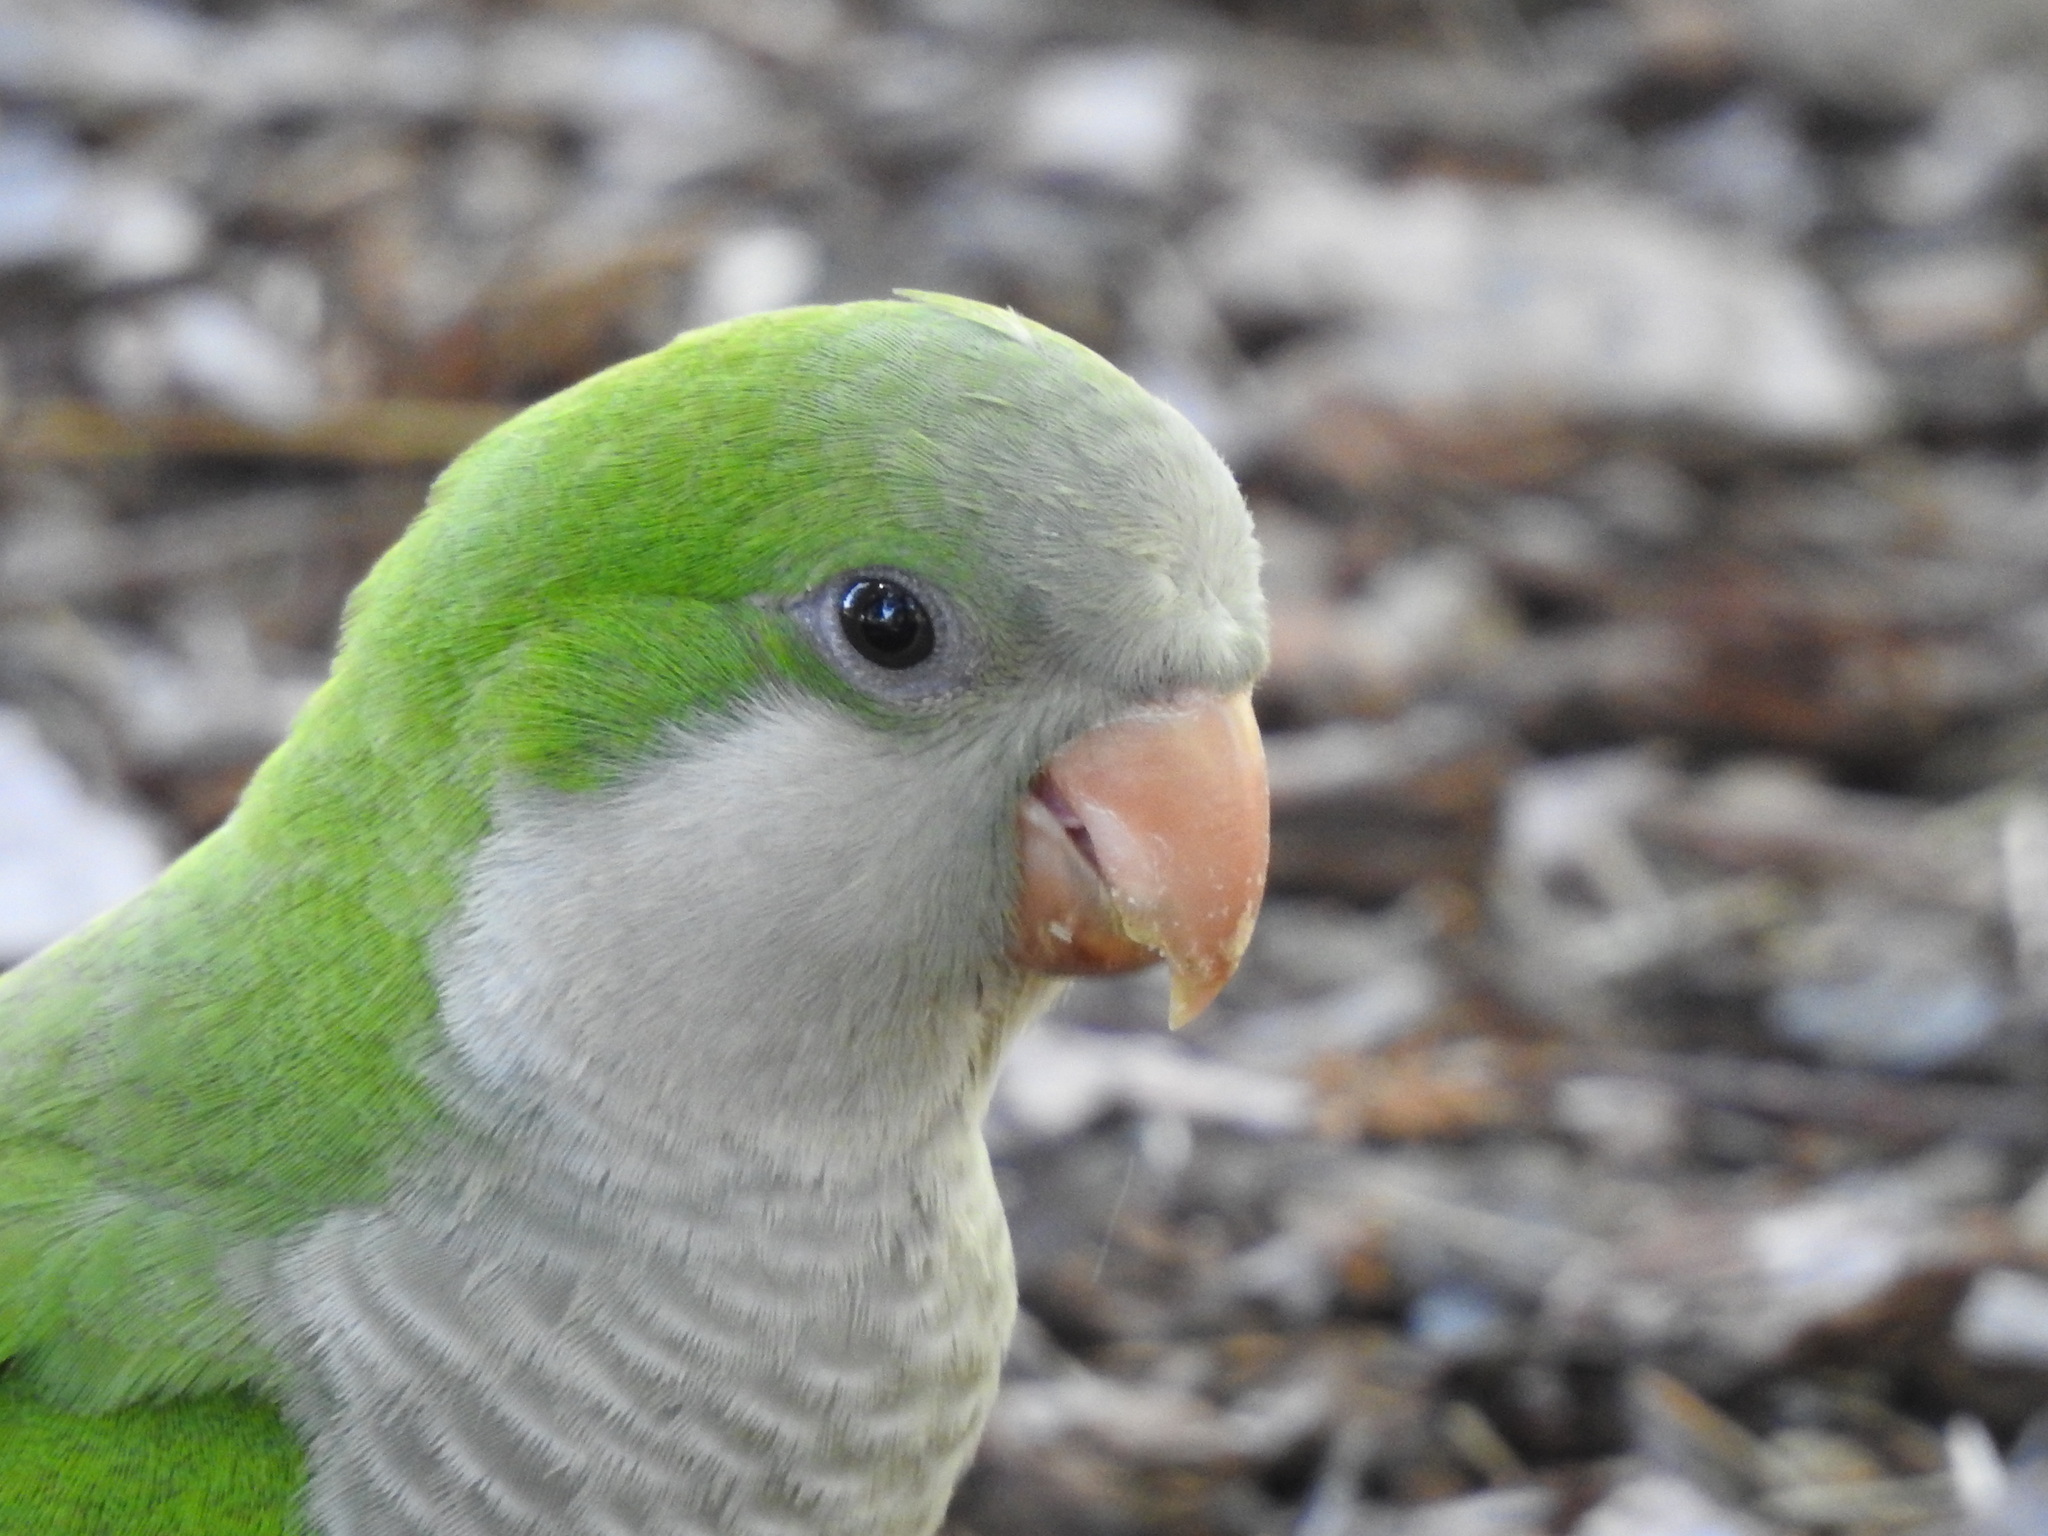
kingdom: Animalia
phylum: Chordata
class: Aves
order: Psittaciformes
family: Psittacidae
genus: Myiopsitta
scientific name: Myiopsitta monachus
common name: Monk parakeet
